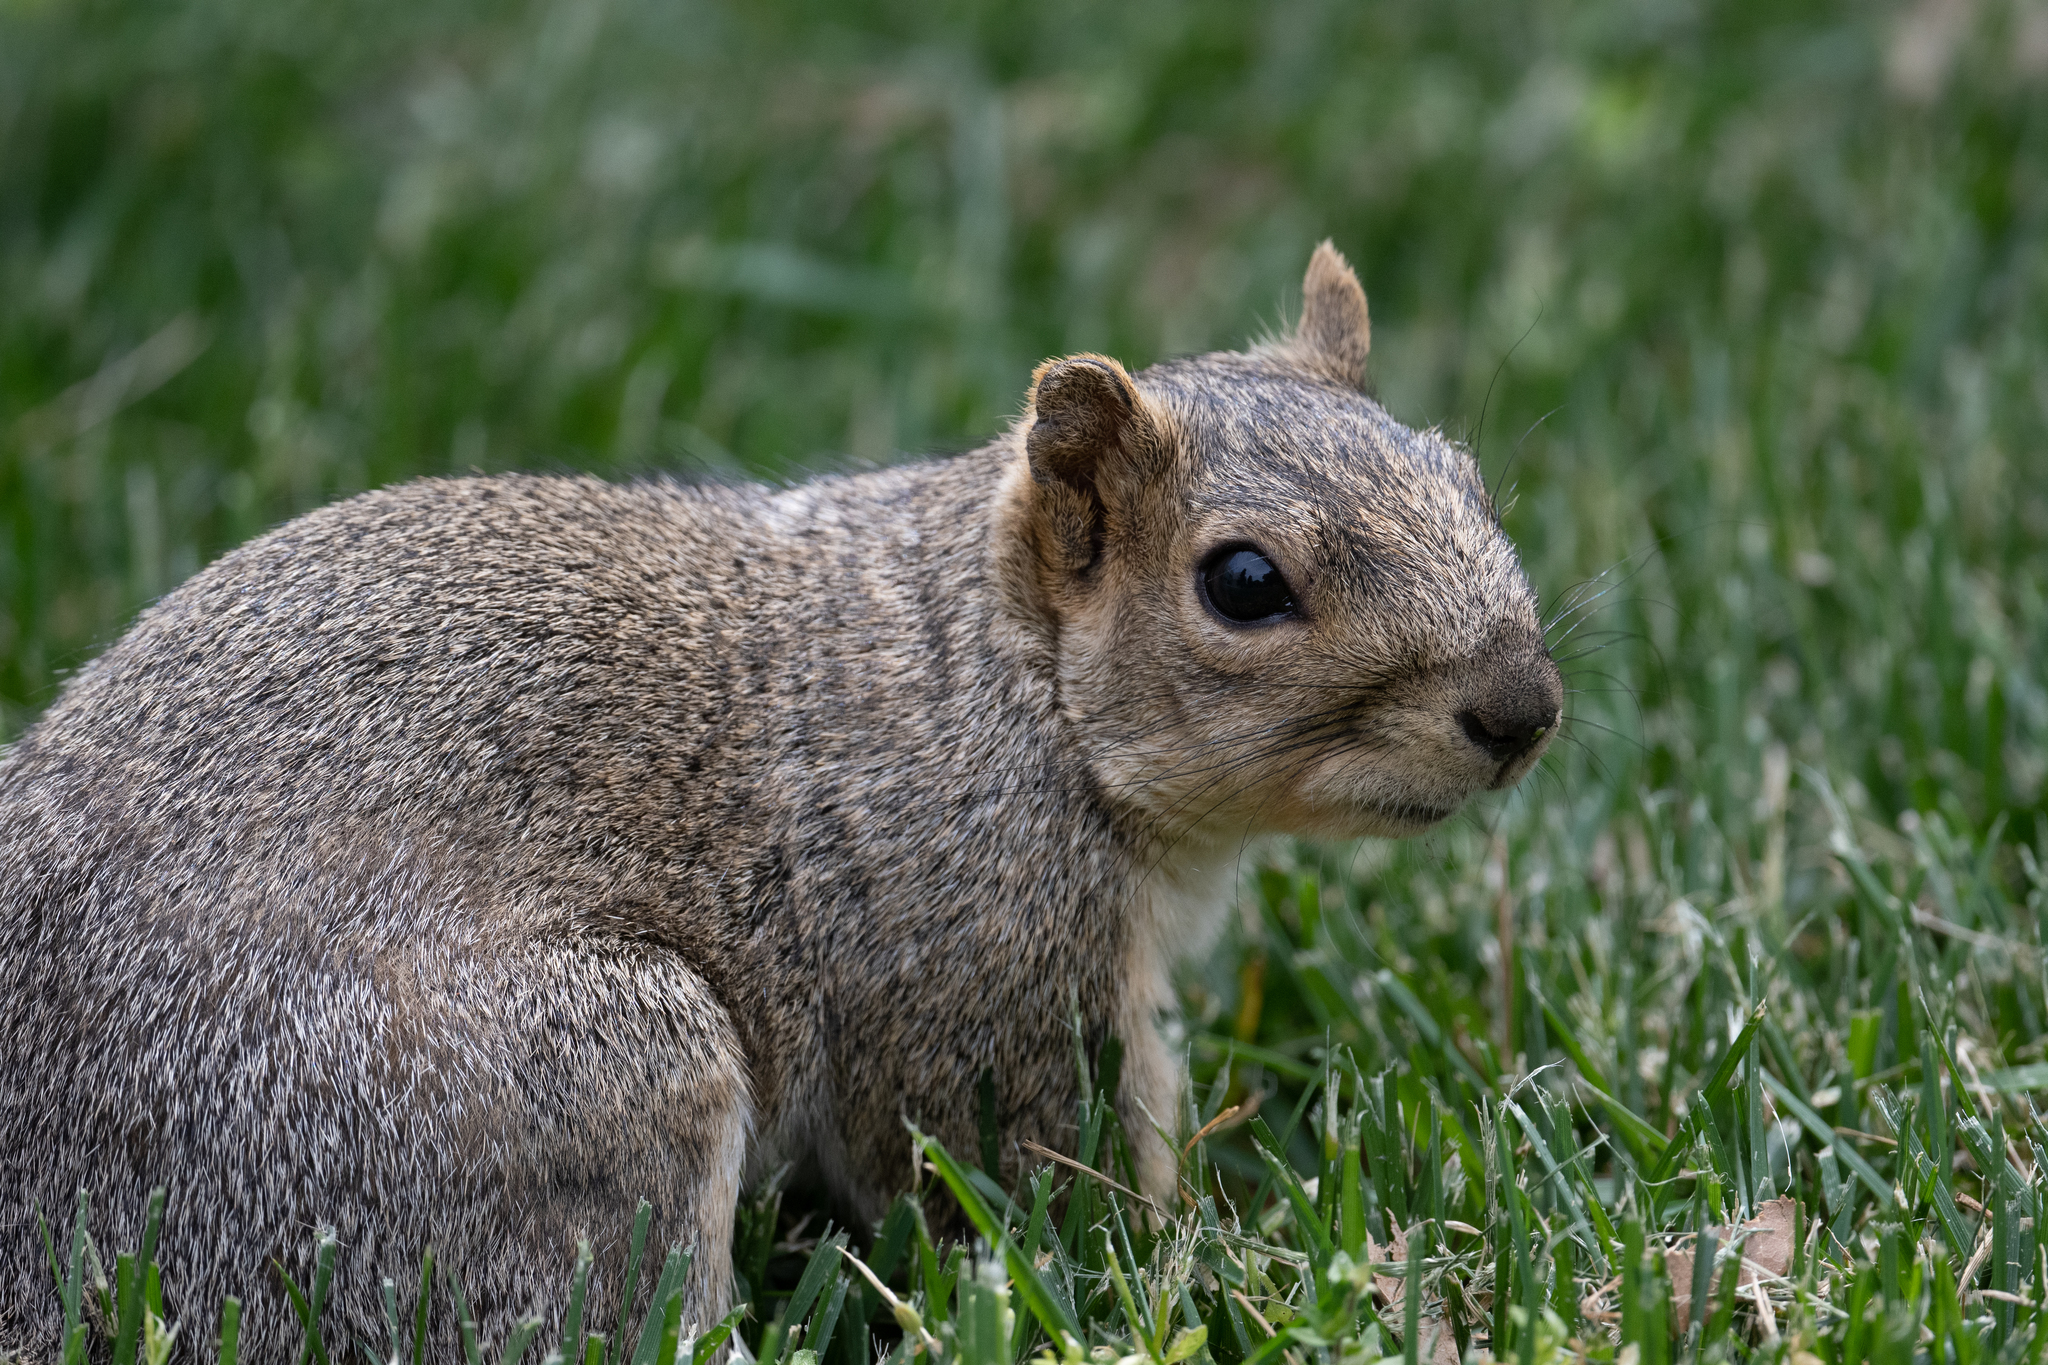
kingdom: Animalia
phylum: Chordata
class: Mammalia
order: Rodentia
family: Sciuridae
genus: Sciurus
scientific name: Sciurus niger
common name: Fox squirrel
